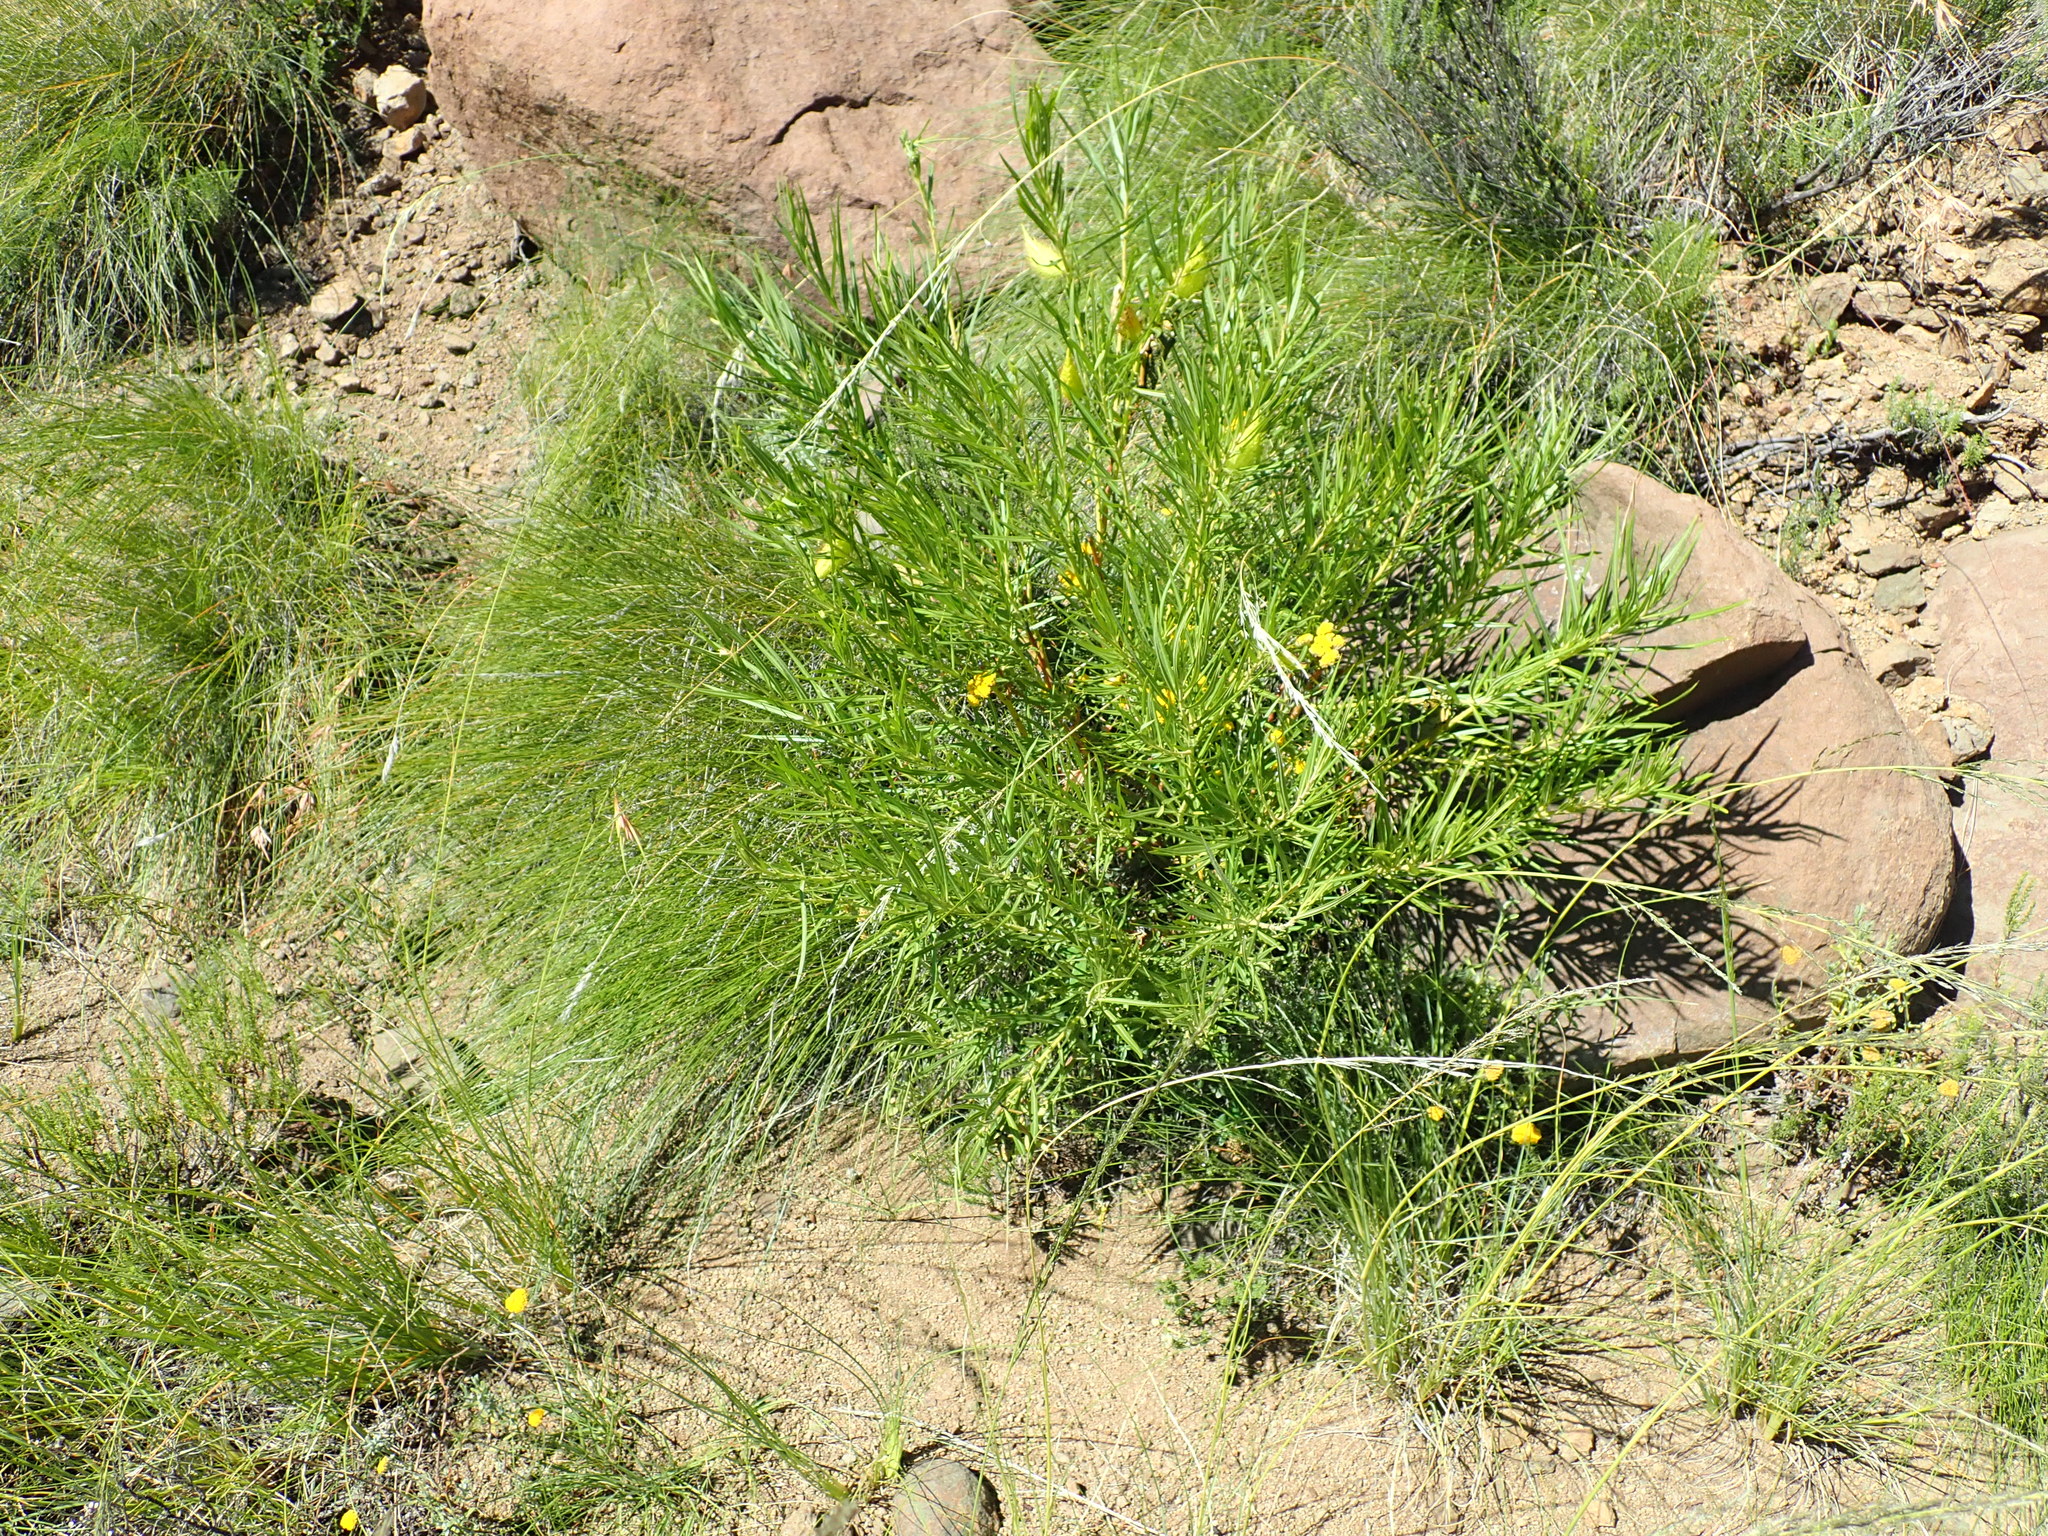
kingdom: Plantae
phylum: Tracheophyta
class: Magnoliopsida
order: Gentianales
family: Apocynaceae
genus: Gomphocarpus
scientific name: Gomphocarpus fruticosus
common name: Milkweed
